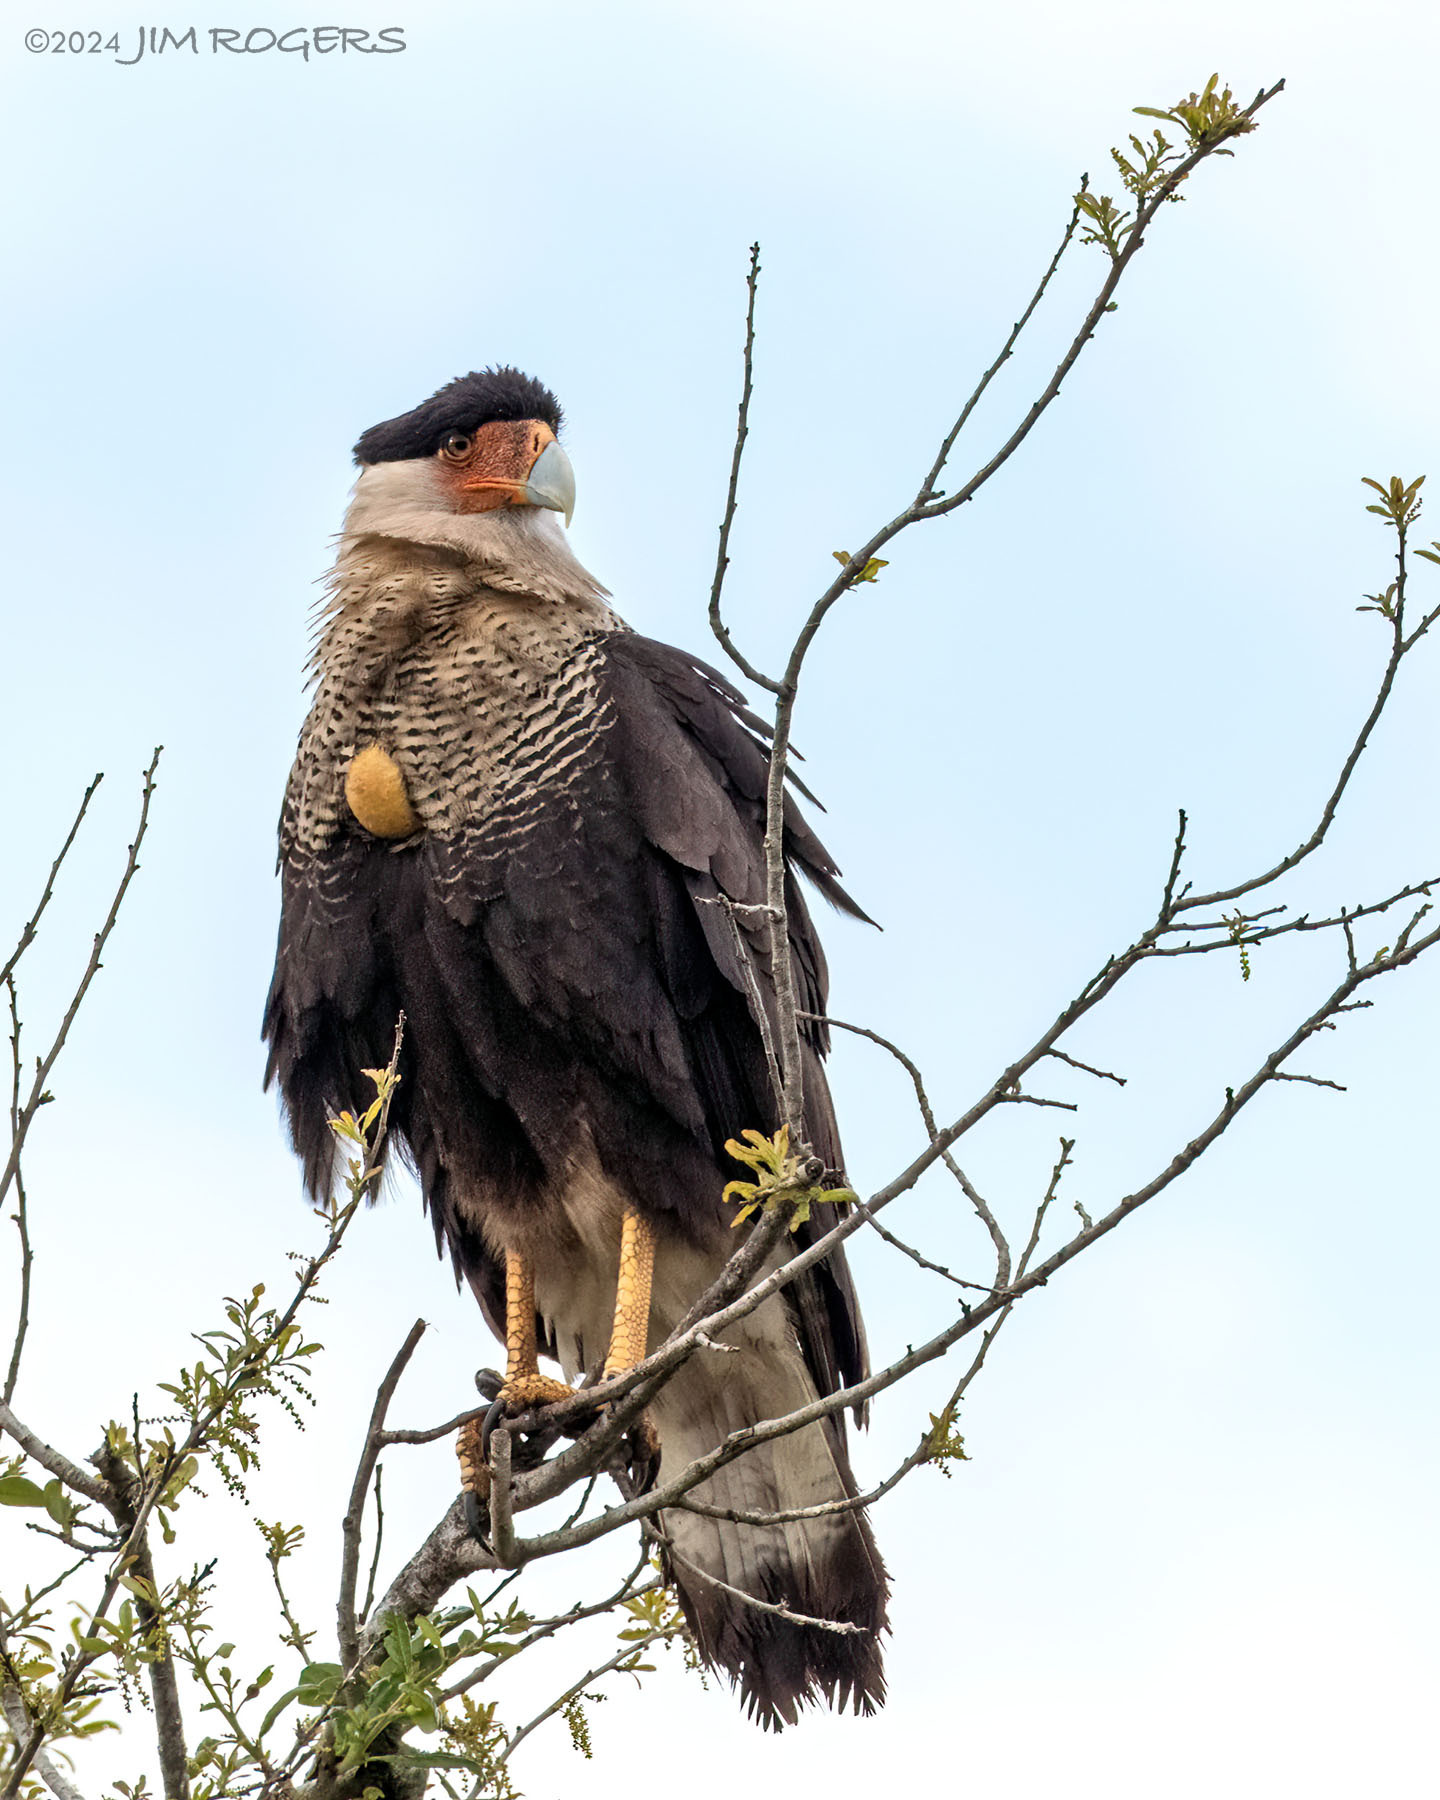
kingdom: Animalia
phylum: Chordata
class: Aves
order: Falconiformes
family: Falconidae
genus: Caracara
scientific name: Caracara plancus
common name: Southern caracara
